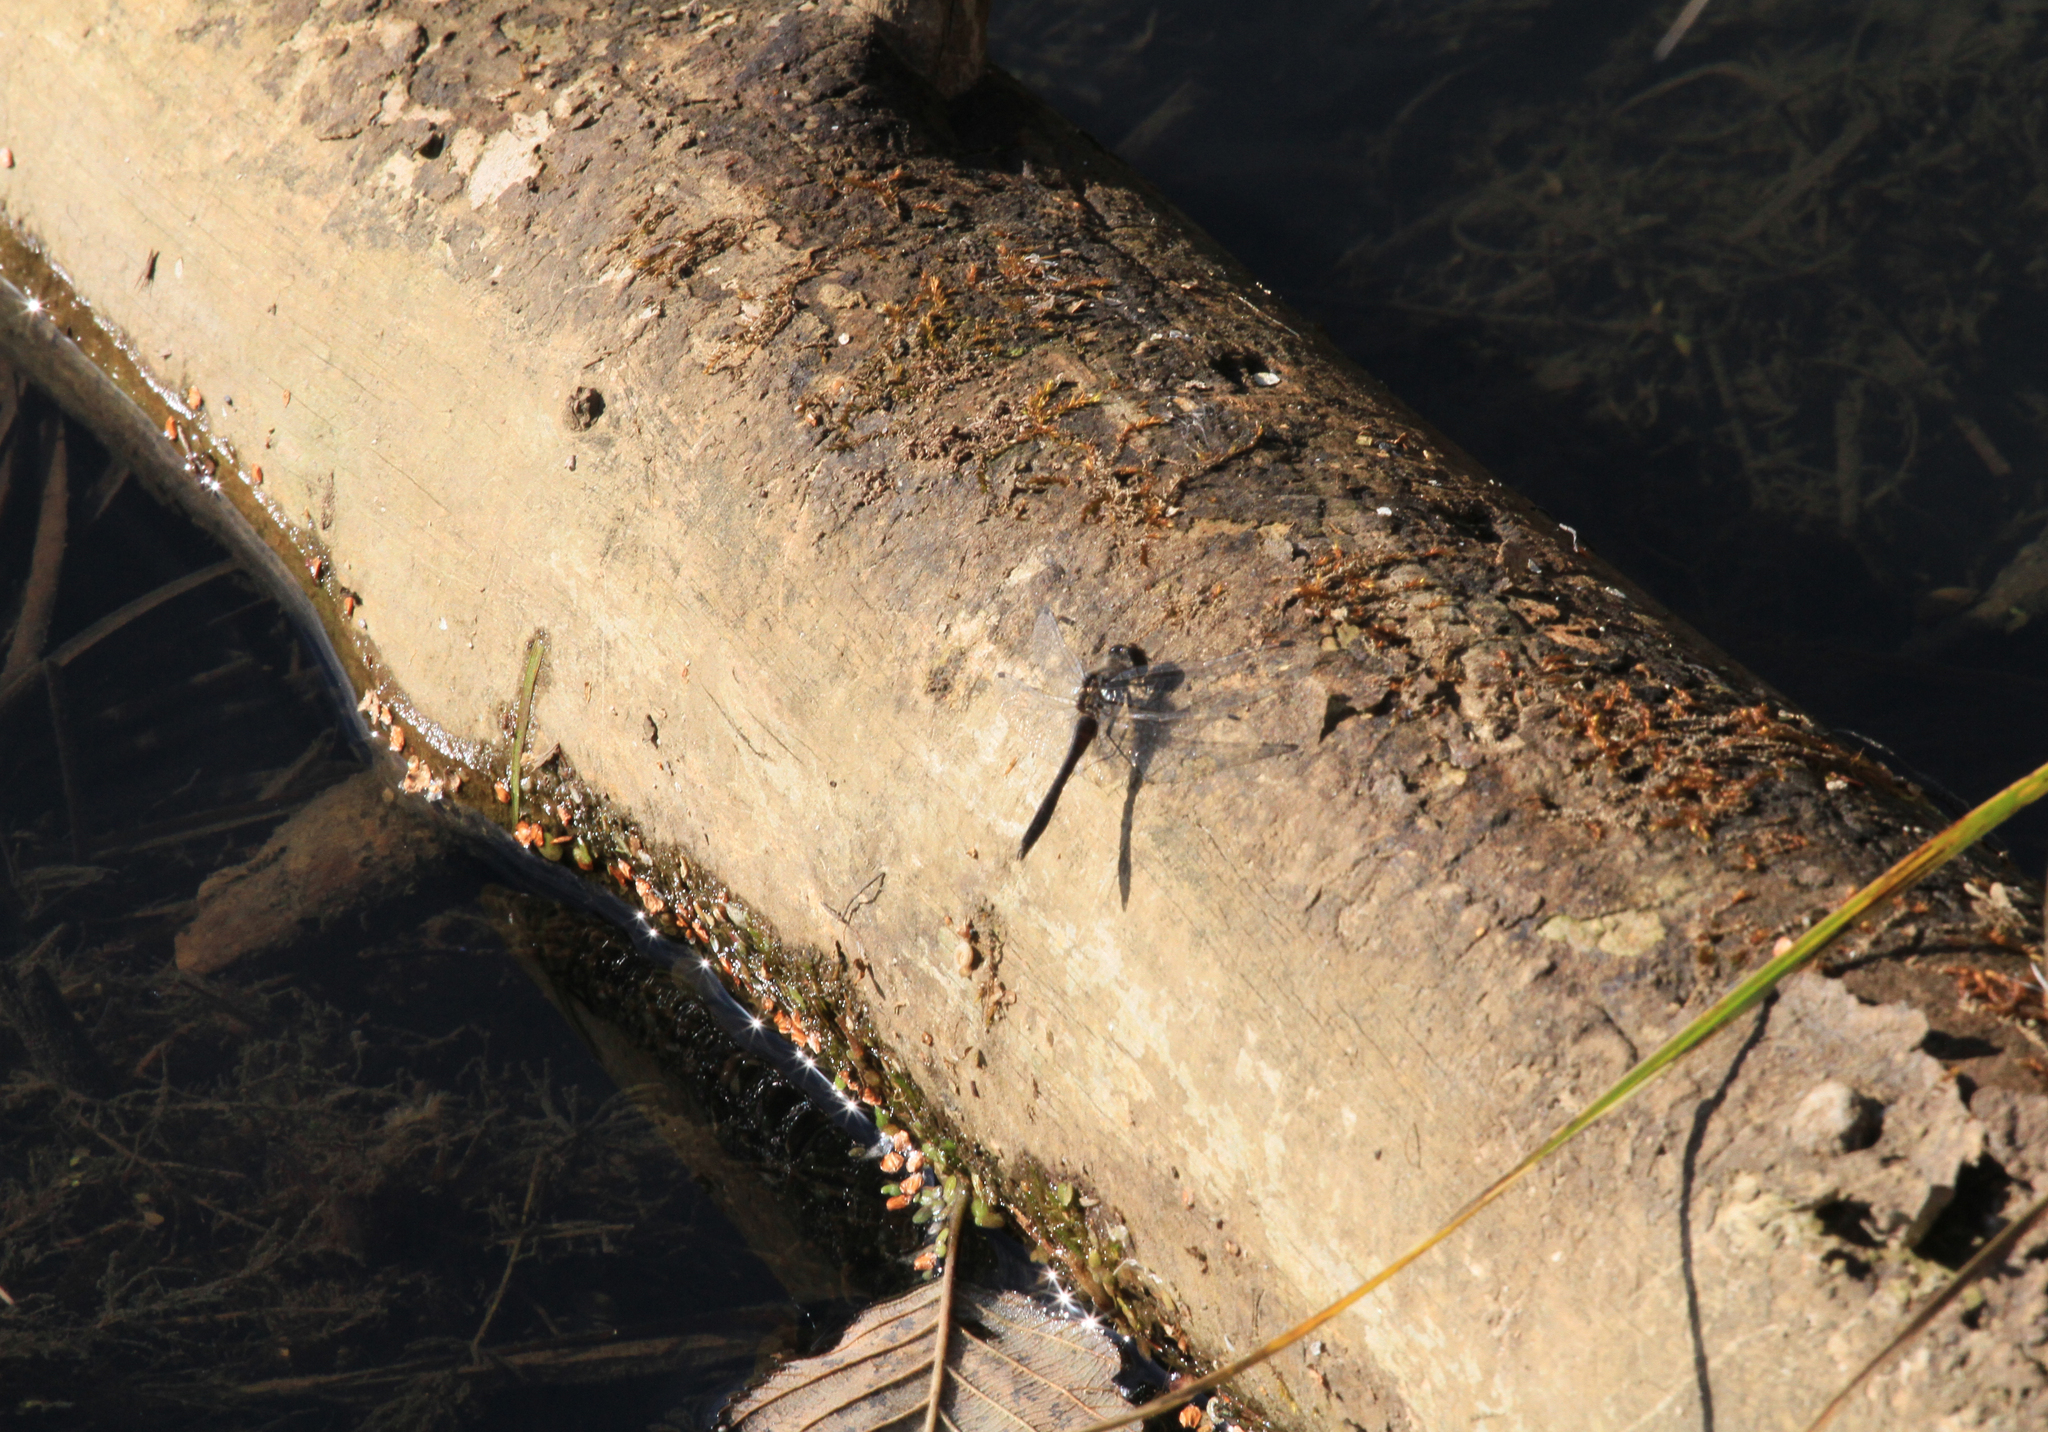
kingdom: Animalia
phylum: Arthropoda
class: Insecta
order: Odonata
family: Libellulidae
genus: Sympetrum
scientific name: Sympetrum danae
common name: Black darter
